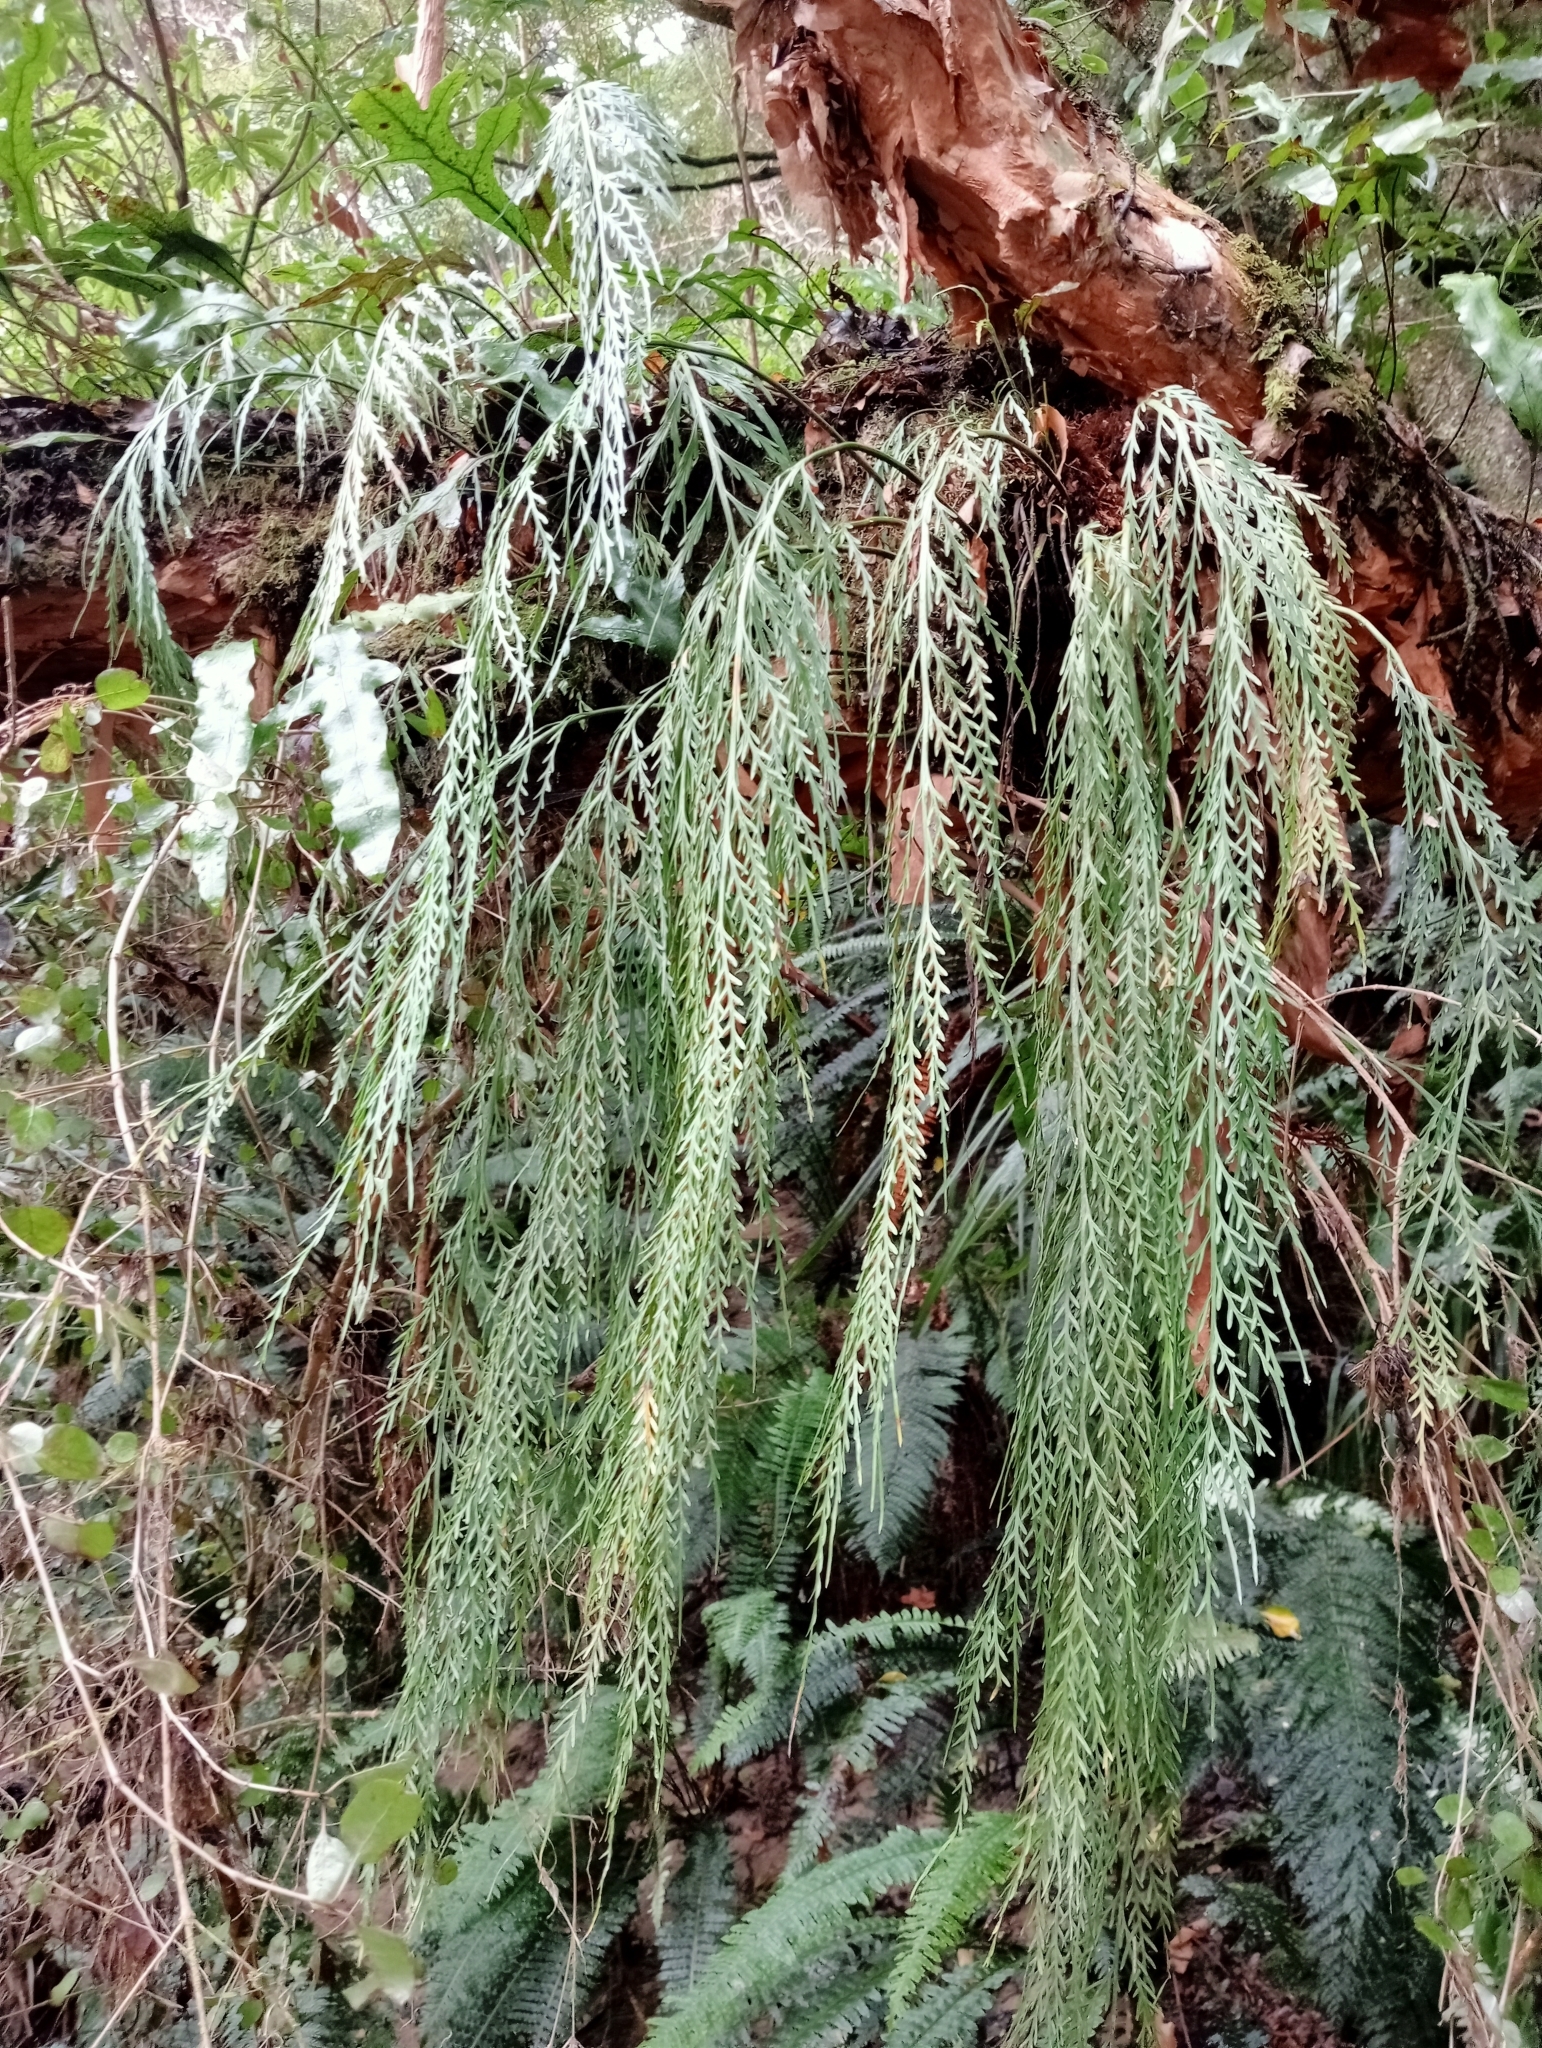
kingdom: Plantae
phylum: Tracheophyta
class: Polypodiopsida
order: Polypodiales
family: Aspleniaceae
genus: Asplenium
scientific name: Asplenium flaccidum
